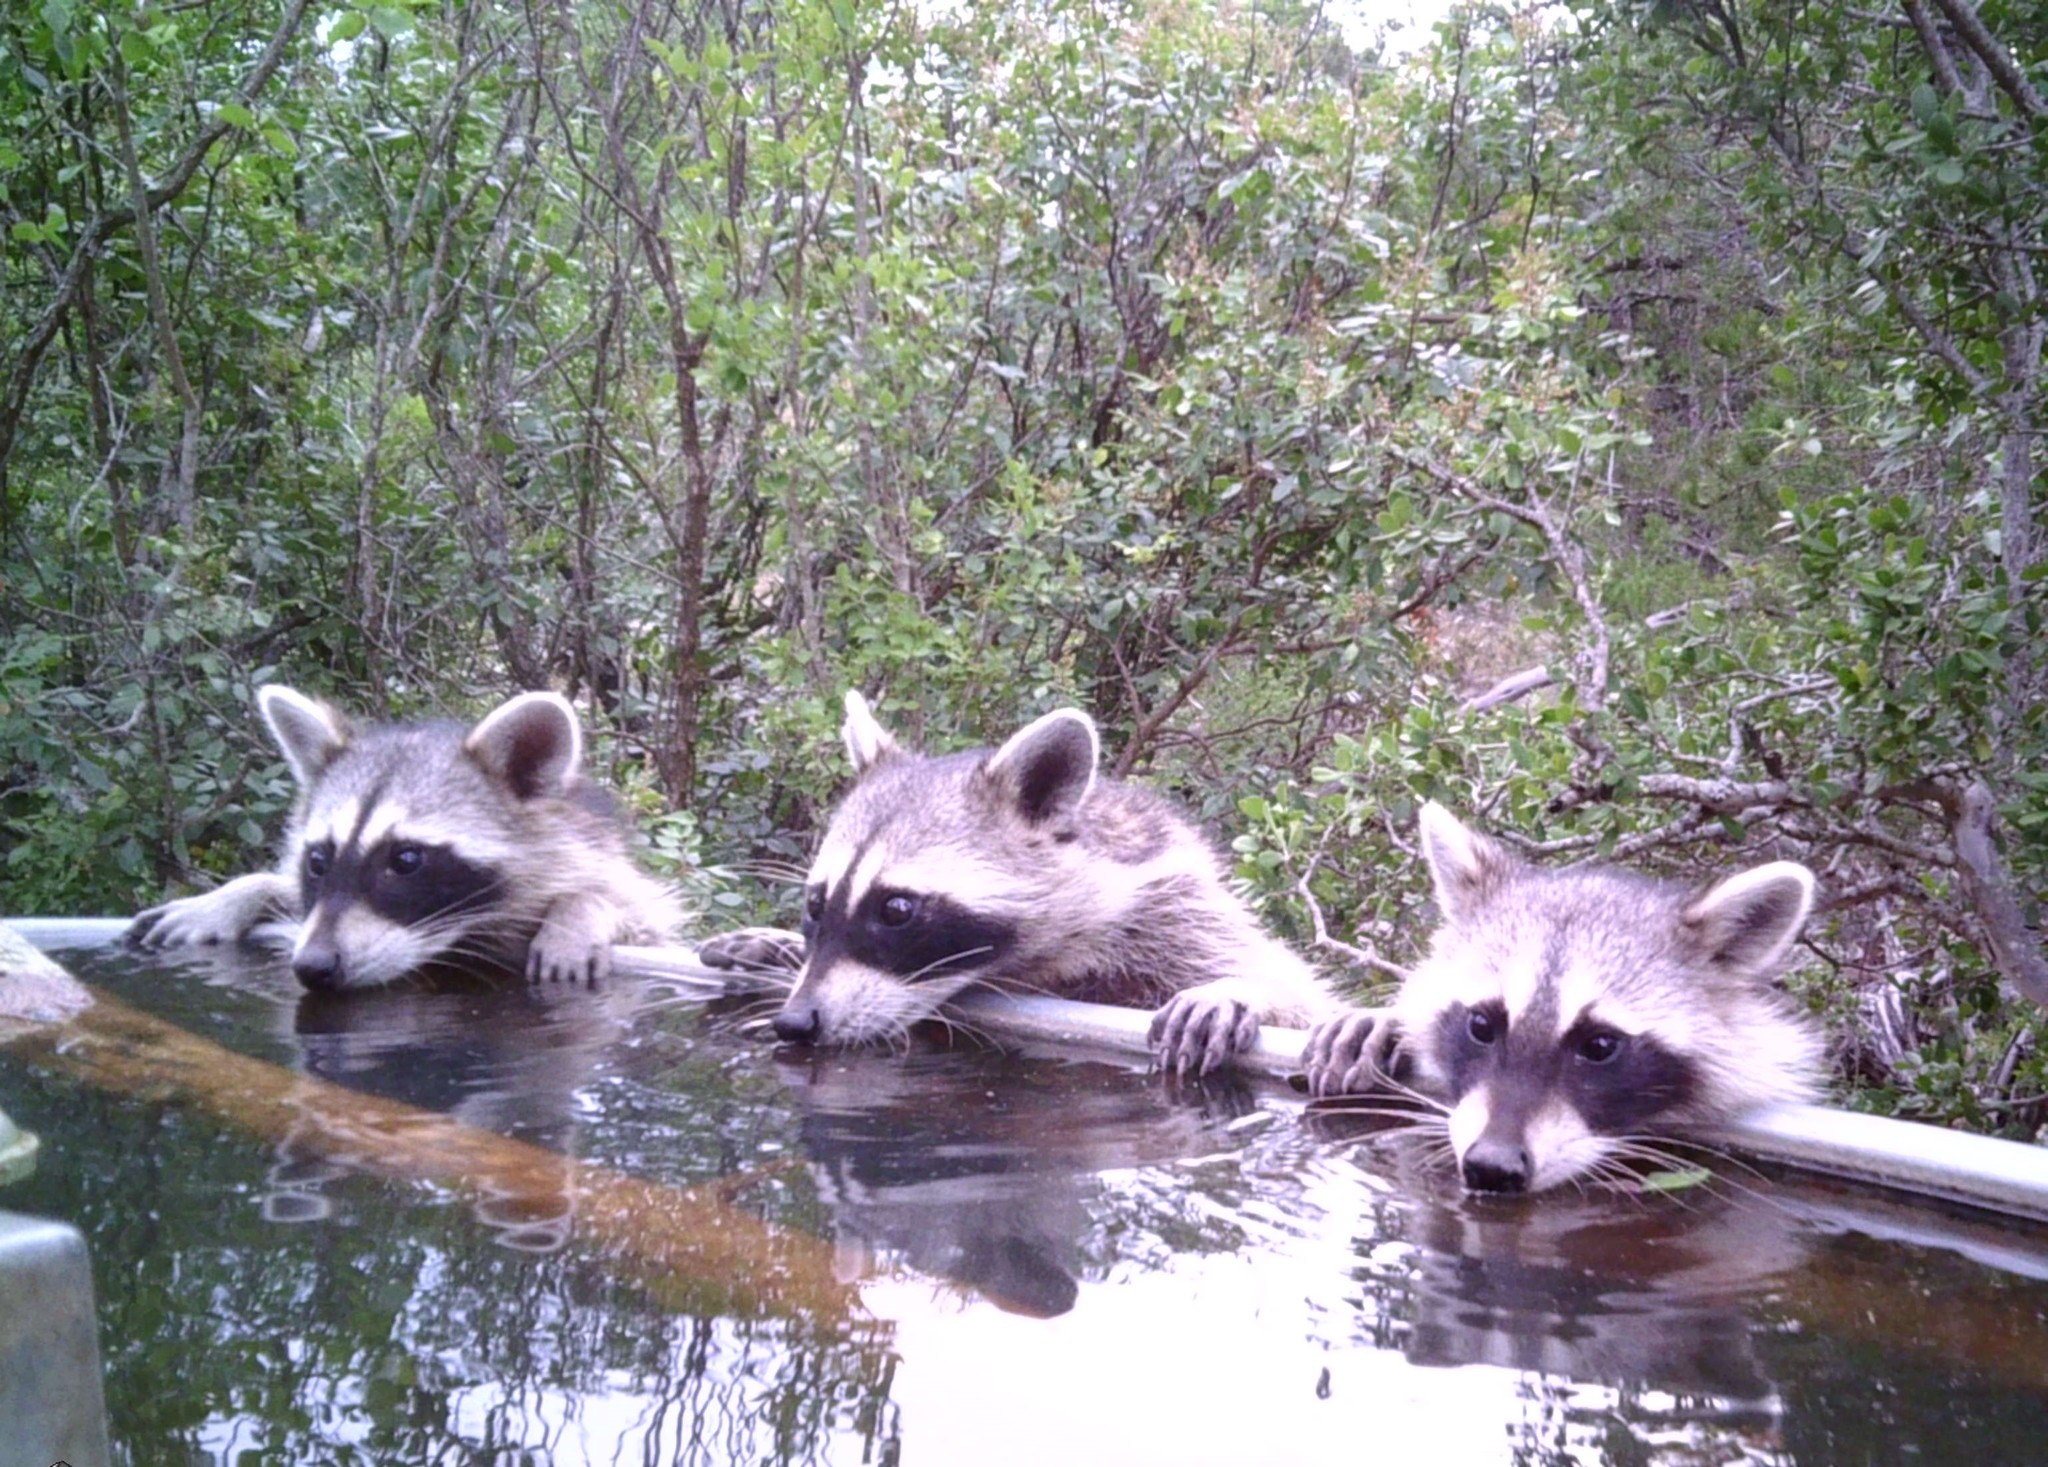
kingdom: Animalia
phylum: Chordata
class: Mammalia
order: Carnivora
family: Procyonidae
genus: Procyon
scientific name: Procyon lotor
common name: Raccoon
